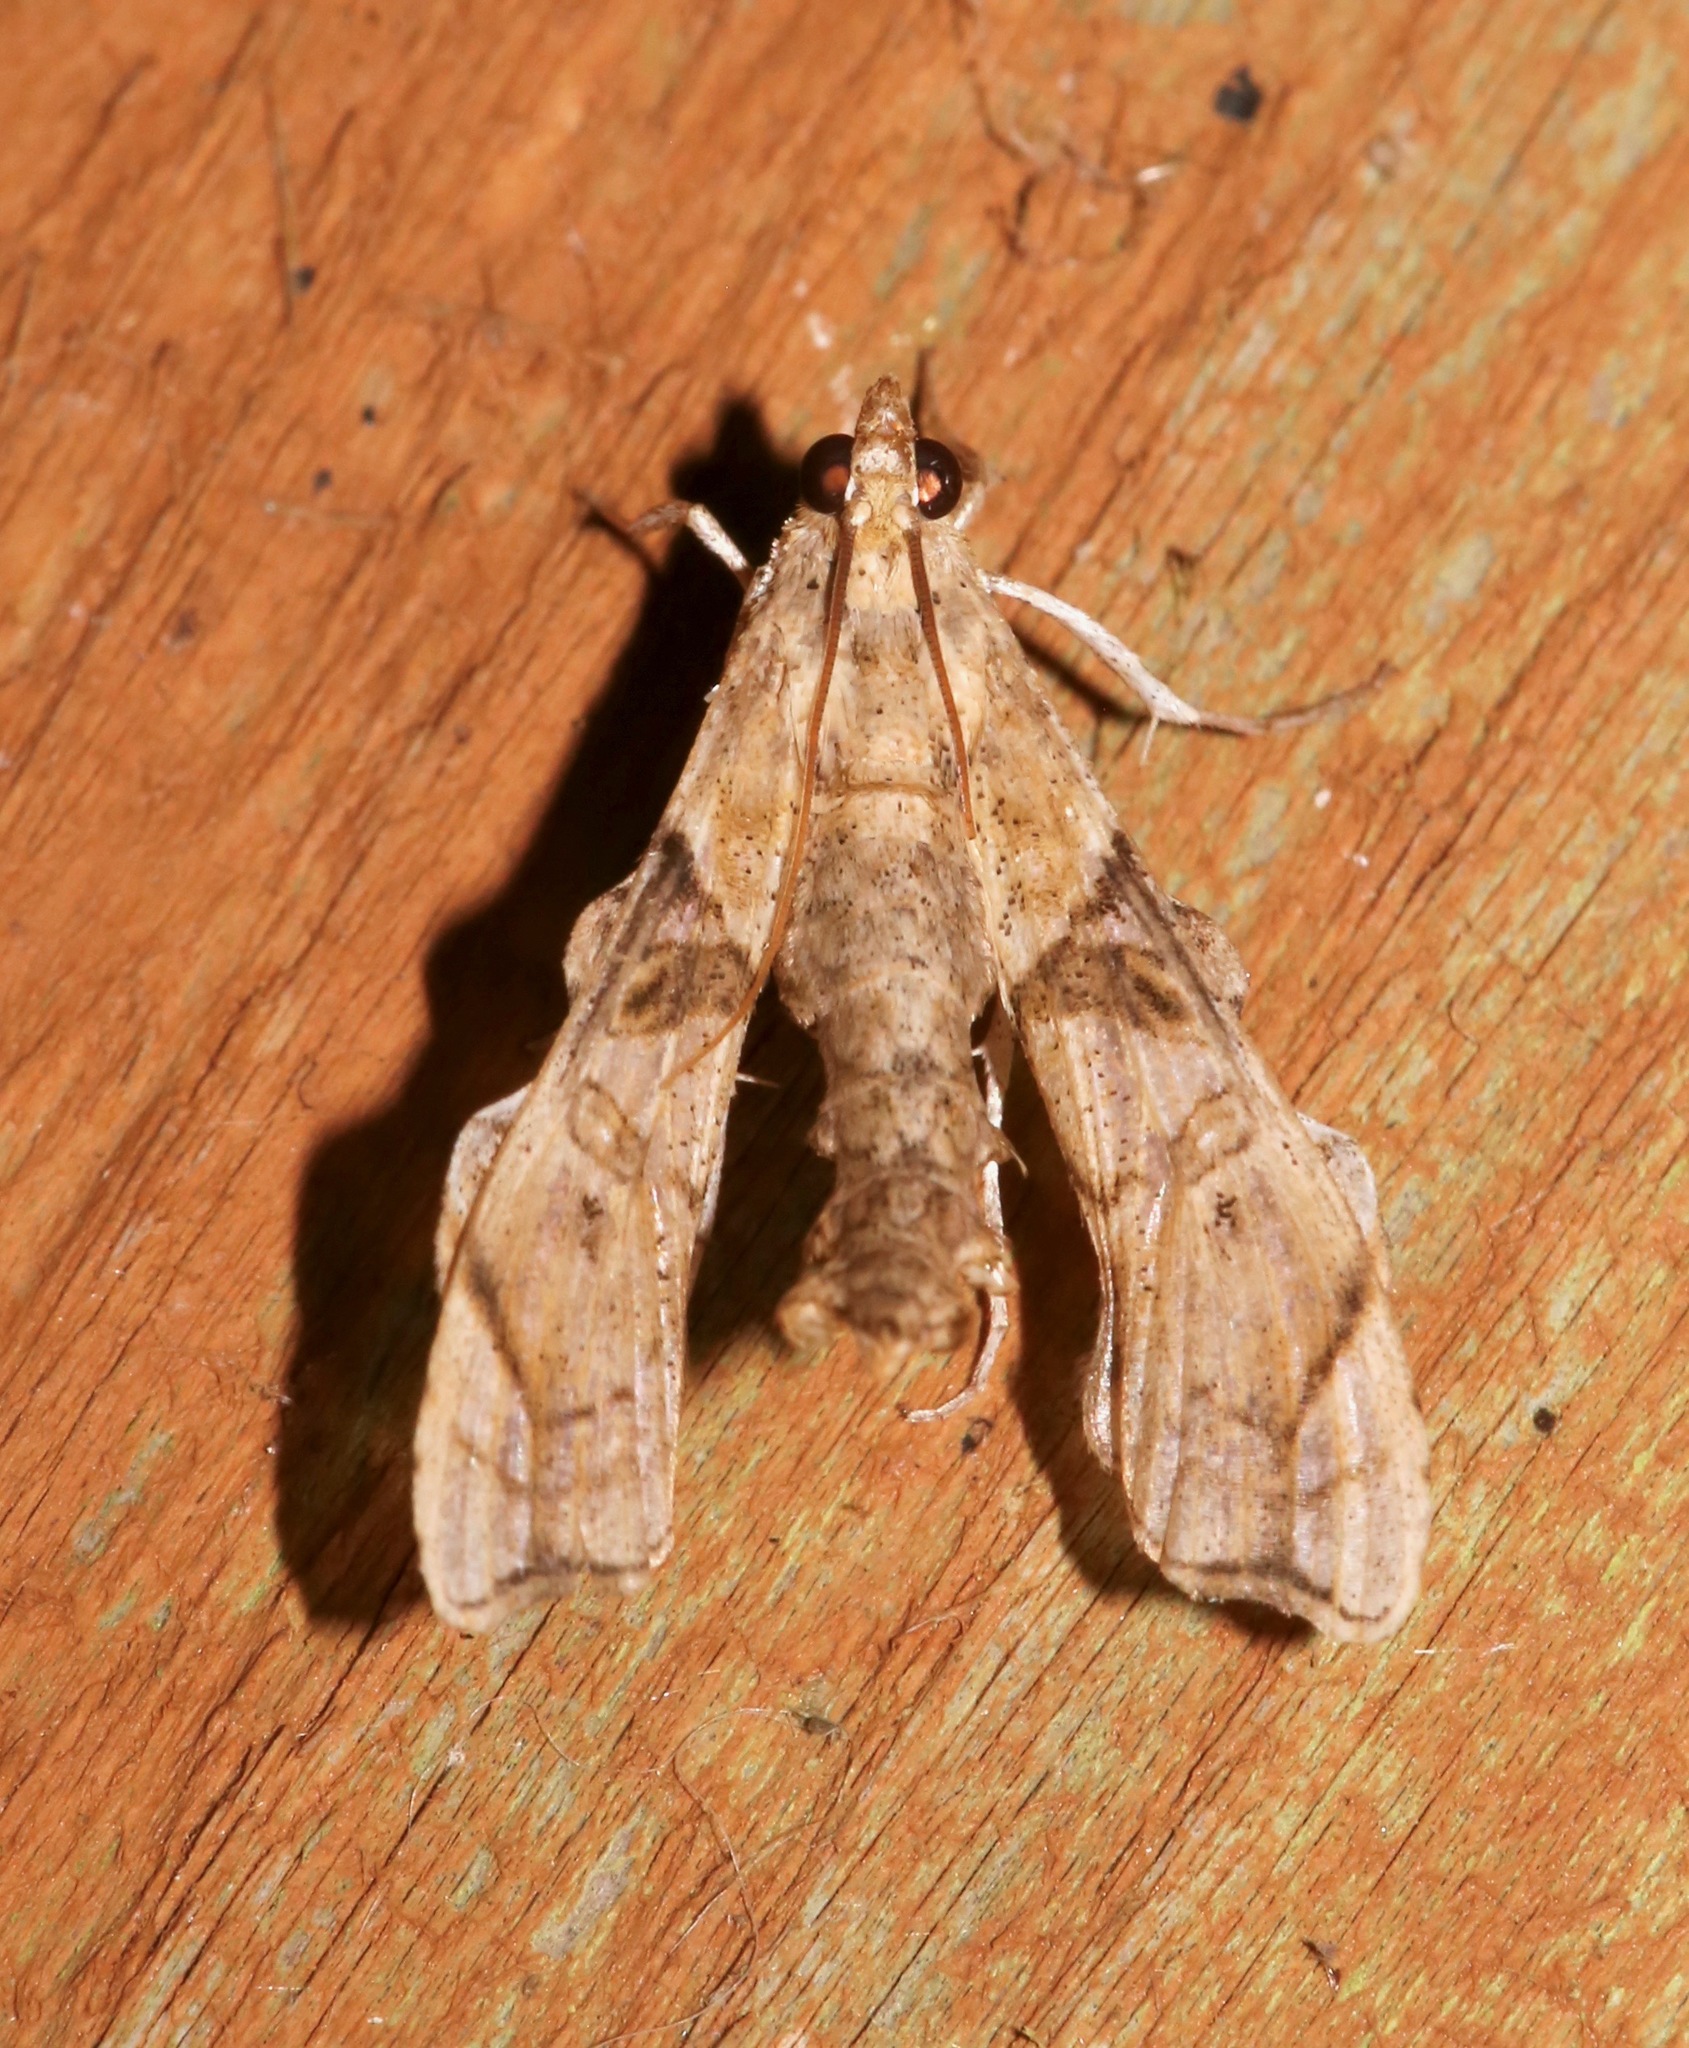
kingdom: Animalia
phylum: Arthropoda
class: Insecta
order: Lepidoptera
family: Crambidae
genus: Terastia
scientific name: Terastia meticulosalis
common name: Moth
